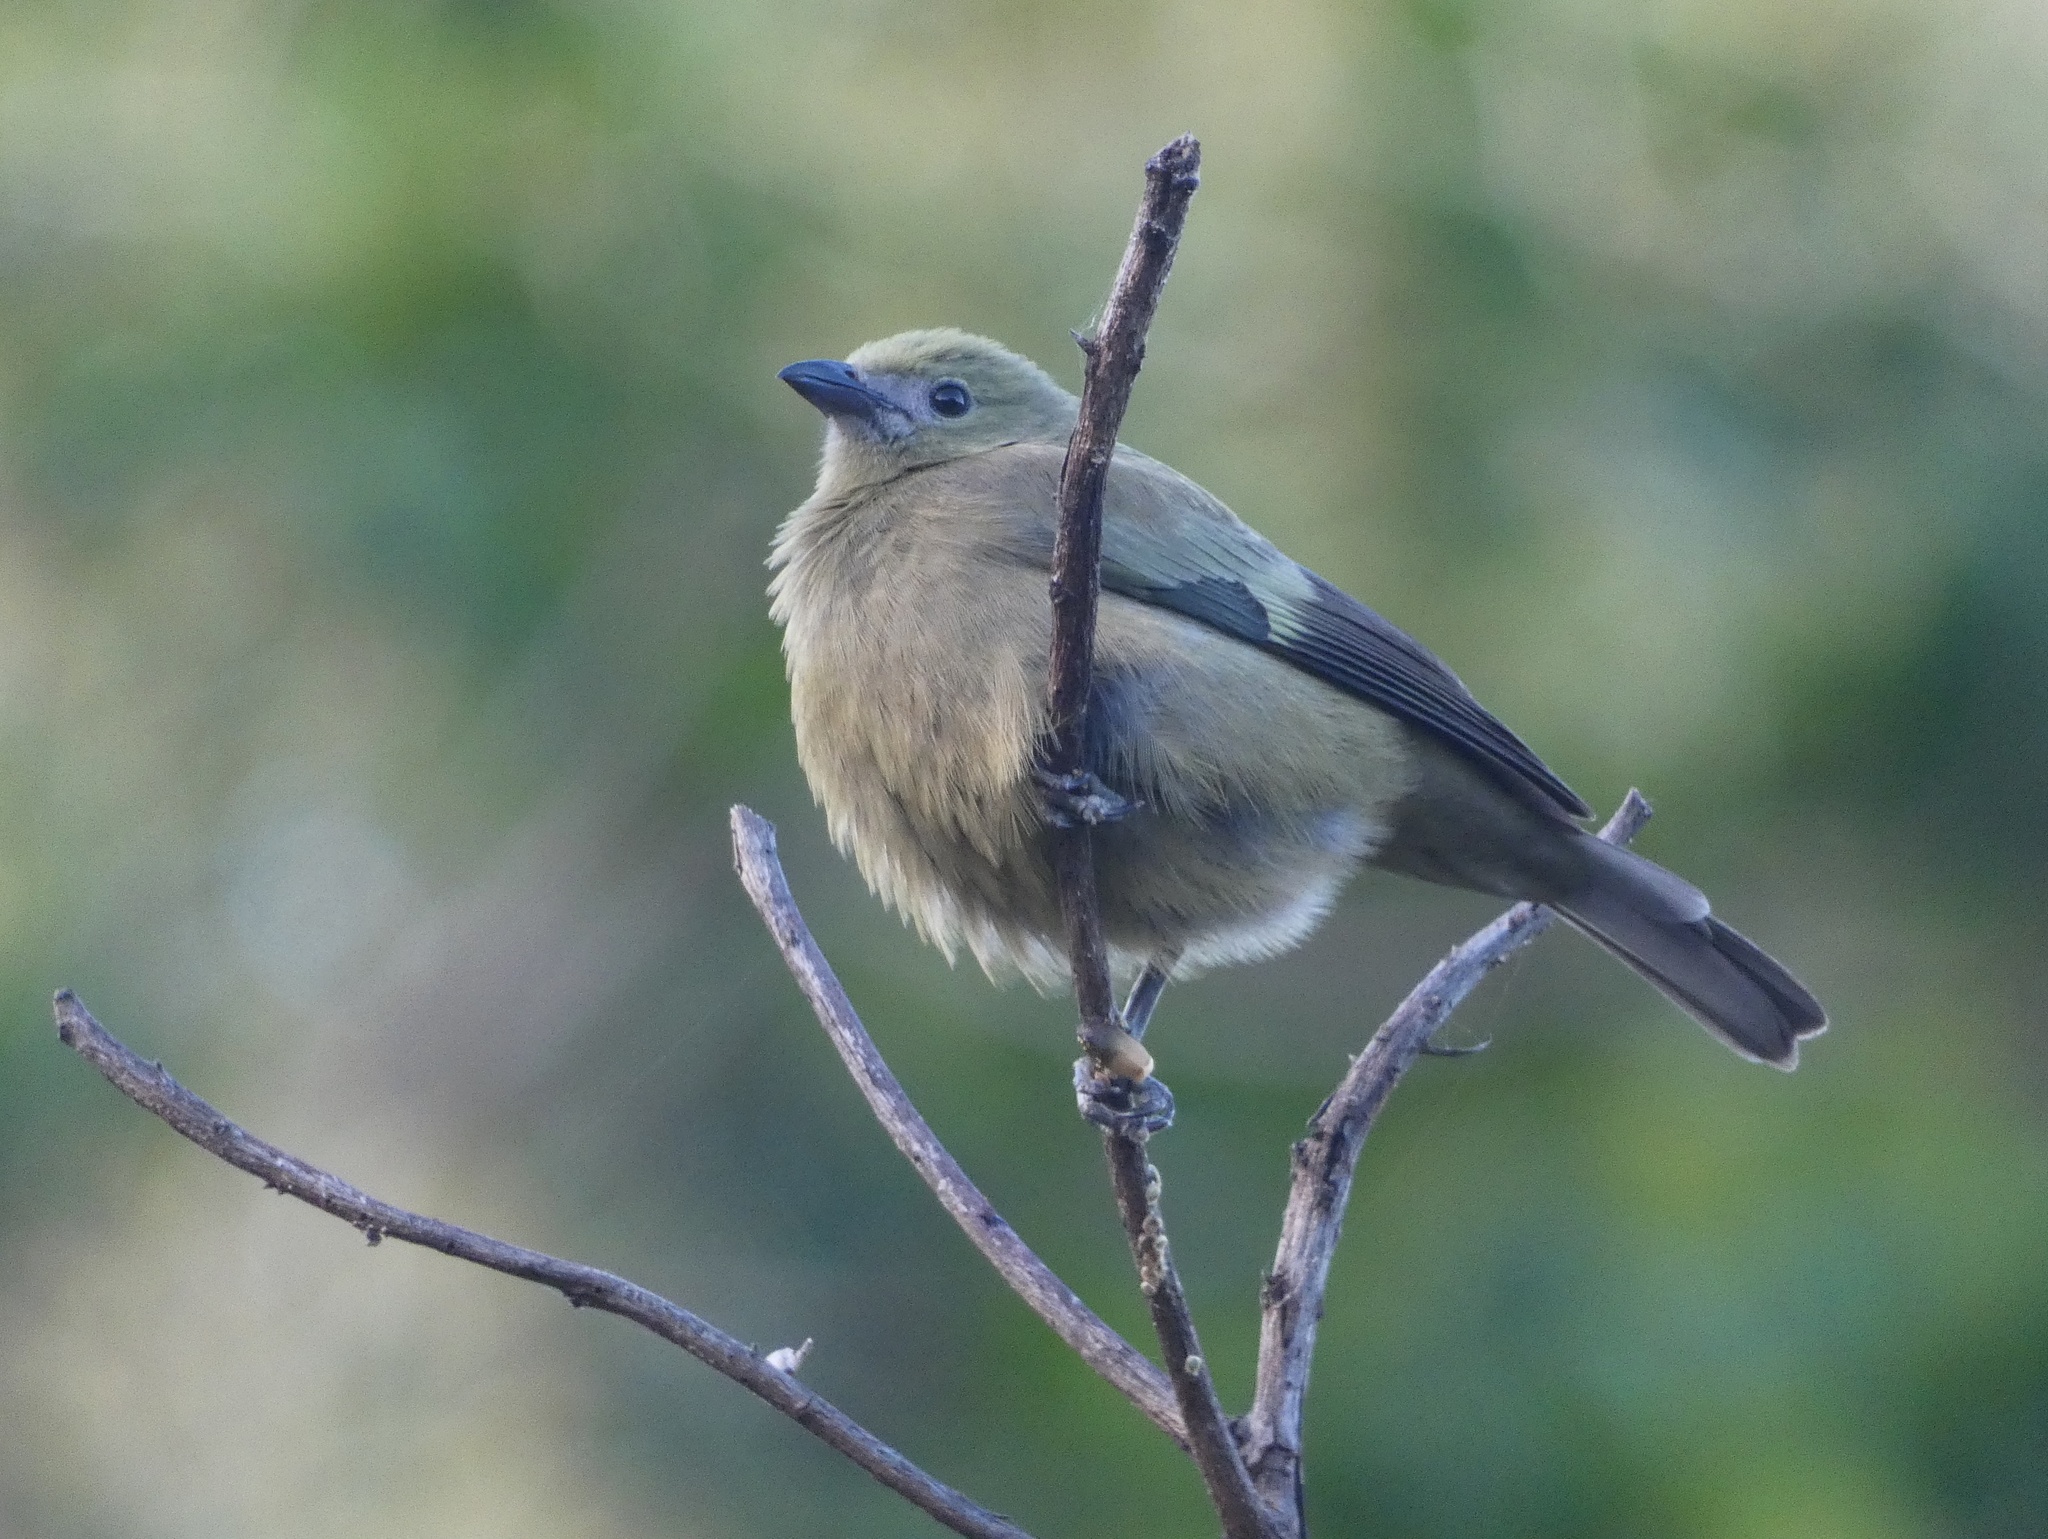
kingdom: Animalia
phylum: Chordata
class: Aves
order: Passeriformes
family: Thraupidae
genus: Thraupis
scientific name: Thraupis palmarum
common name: Palm tanager
